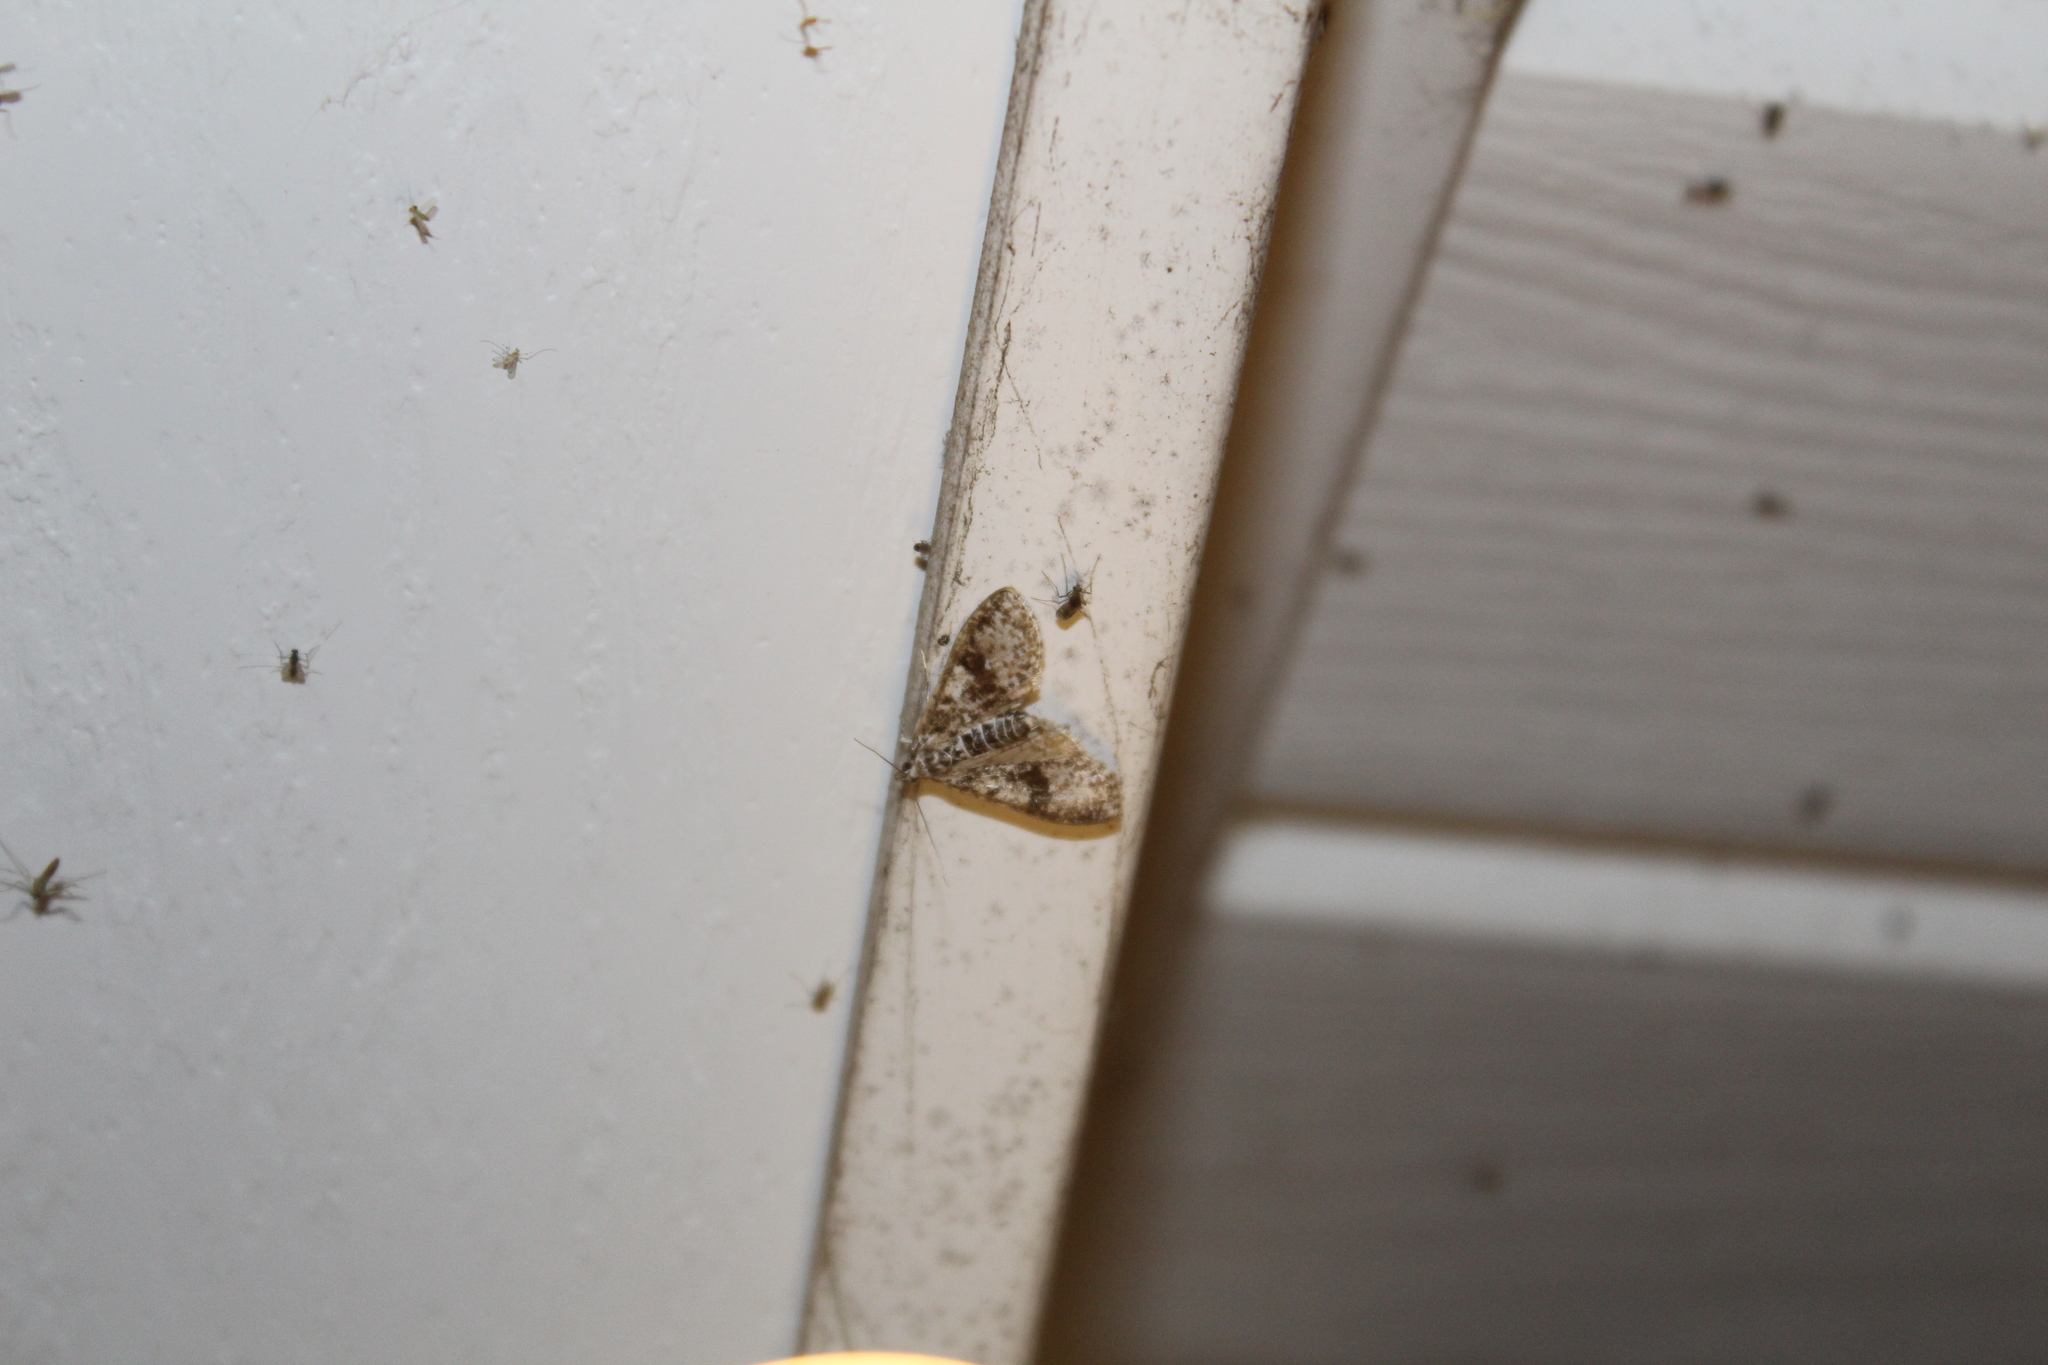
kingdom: Animalia
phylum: Arthropoda
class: Insecta
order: Lepidoptera
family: Crambidae
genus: Palpita
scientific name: Palpita magniferalis
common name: Splendid palpita moth
